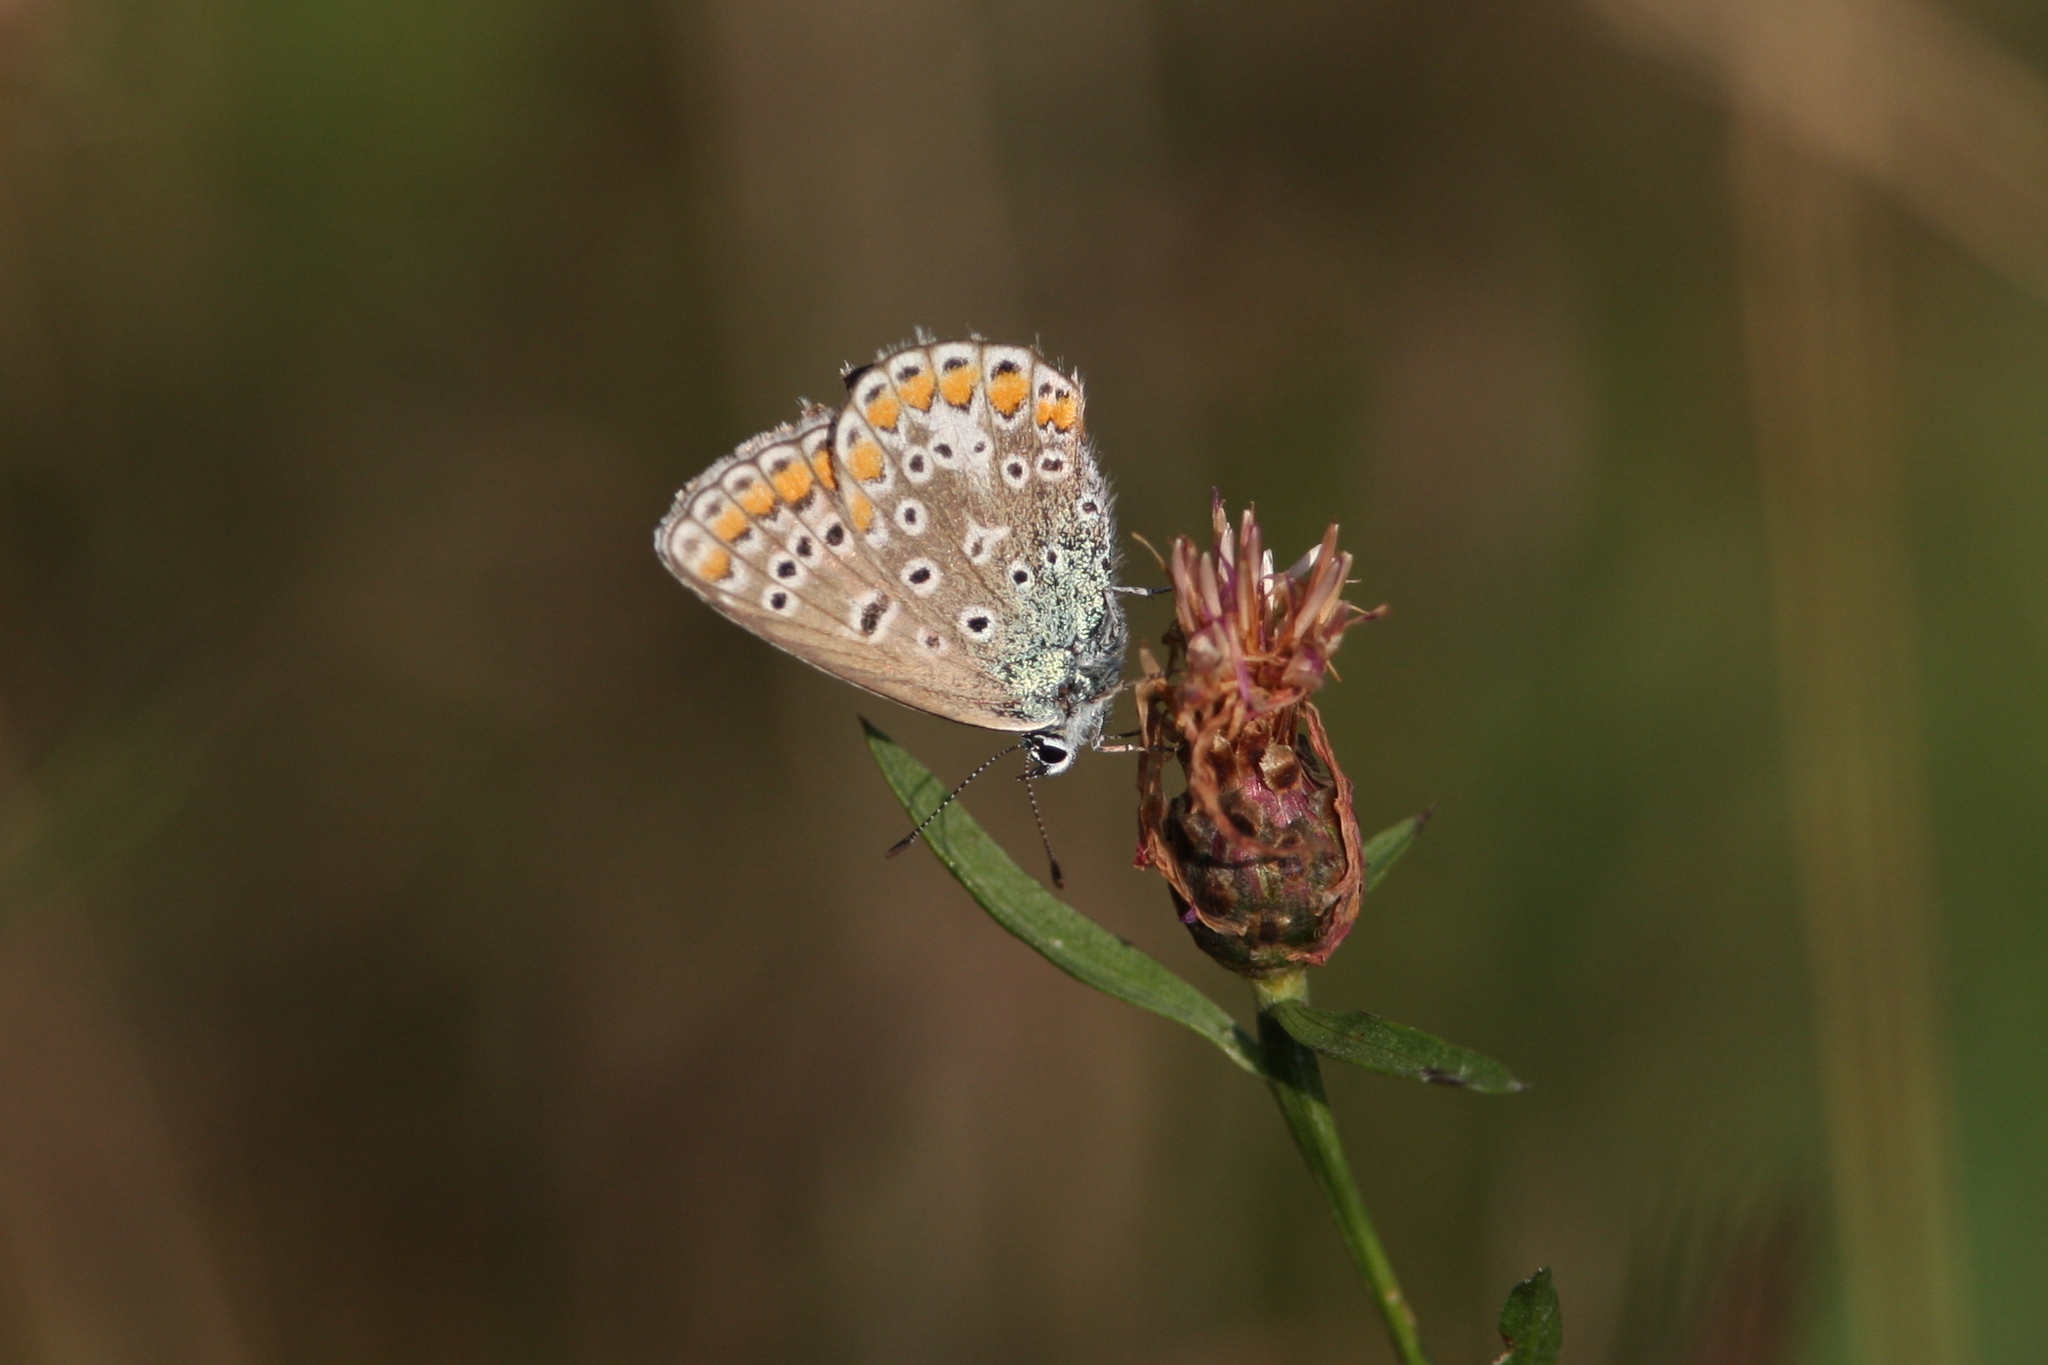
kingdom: Animalia
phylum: Arthropoda
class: Insecta
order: Lepidoptera
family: Lycaenidae
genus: Polyommatus
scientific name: Polyommatus icarus
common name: Common blue
